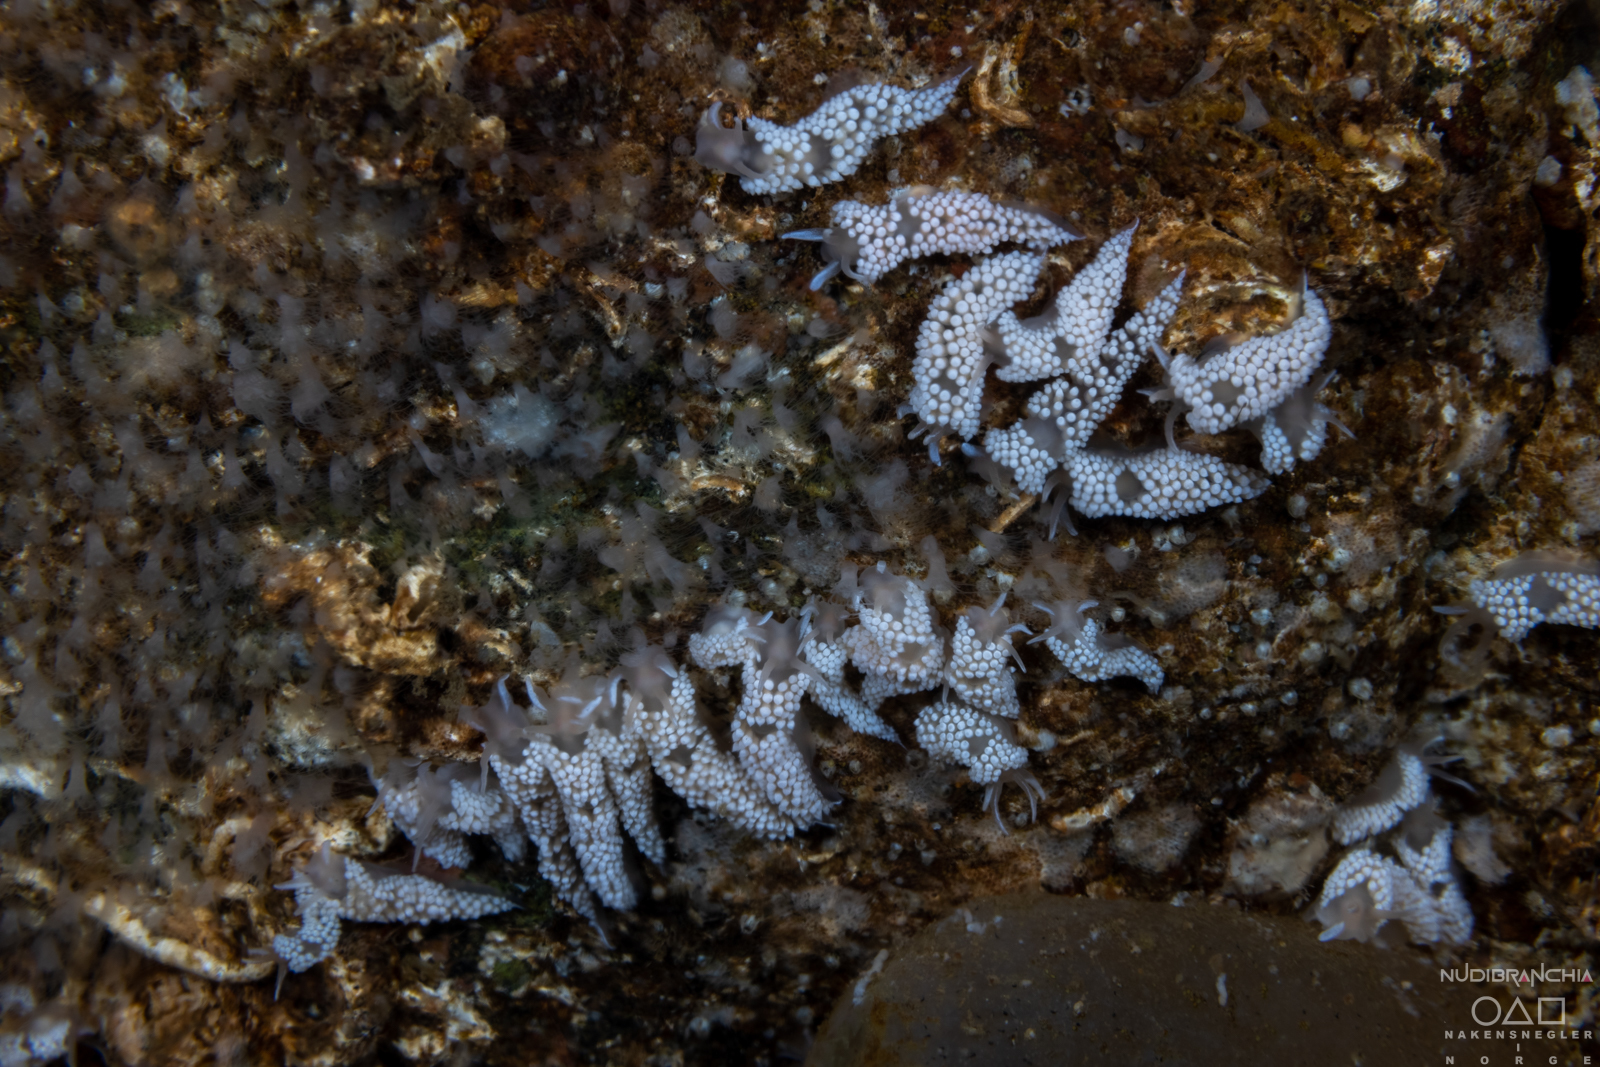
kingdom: Animalia
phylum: Mollusca
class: Gastropoda
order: Nudibranchia
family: Coryphellidae
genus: Coryphella
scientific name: Coryphella verrucosa
